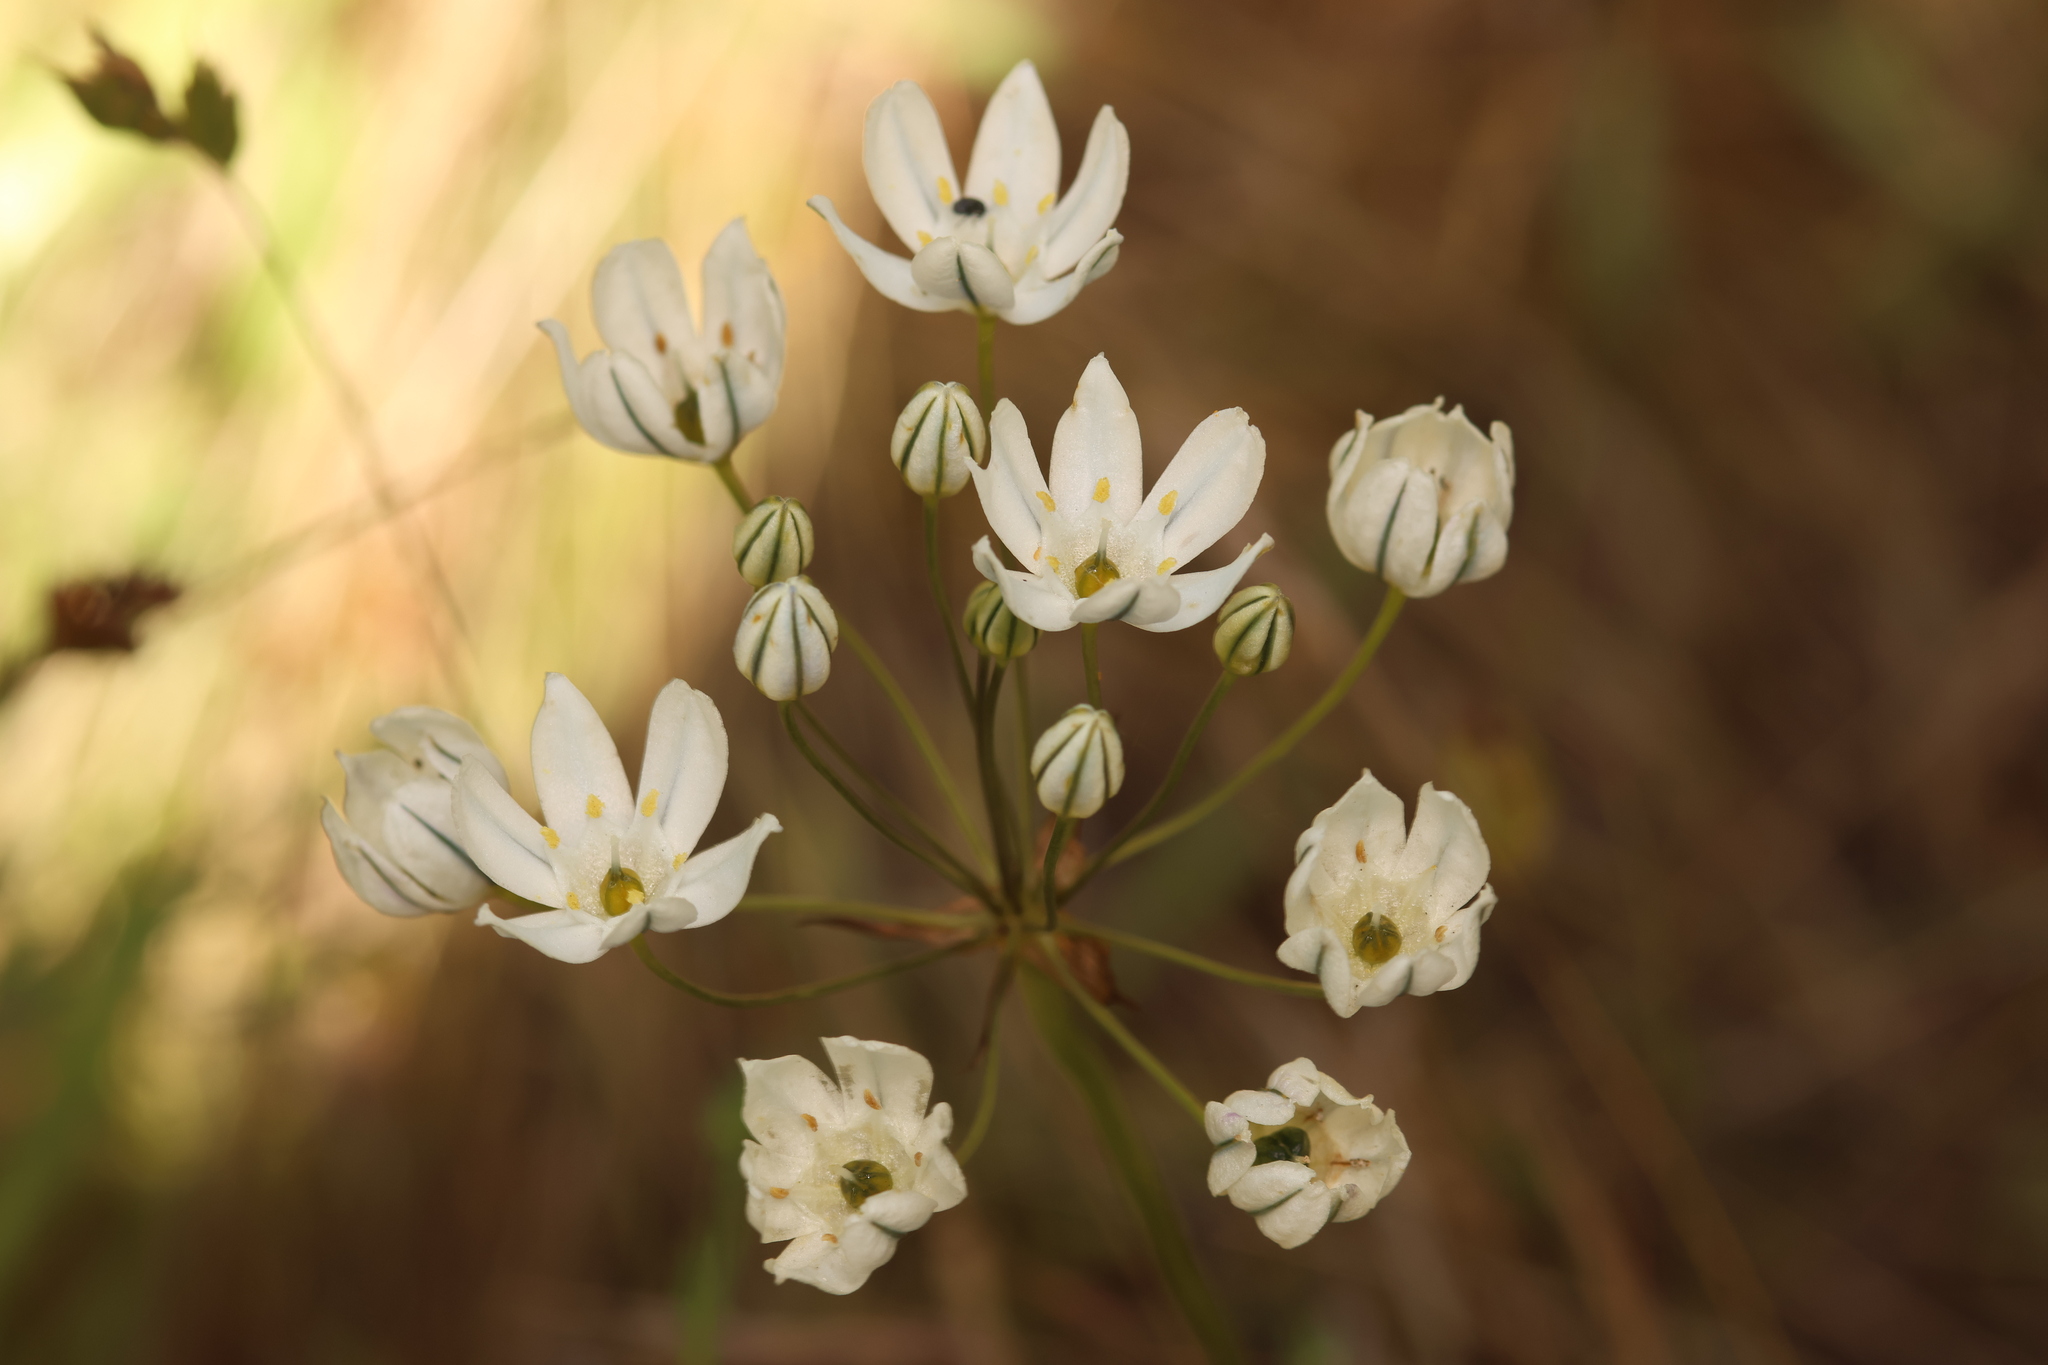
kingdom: Plantae
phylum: Tracheophyta
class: Liliopsida
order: Asparagales
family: Asparagaceae
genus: Triteleia
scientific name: Triteleia hyacinthina
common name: White brodiaea
